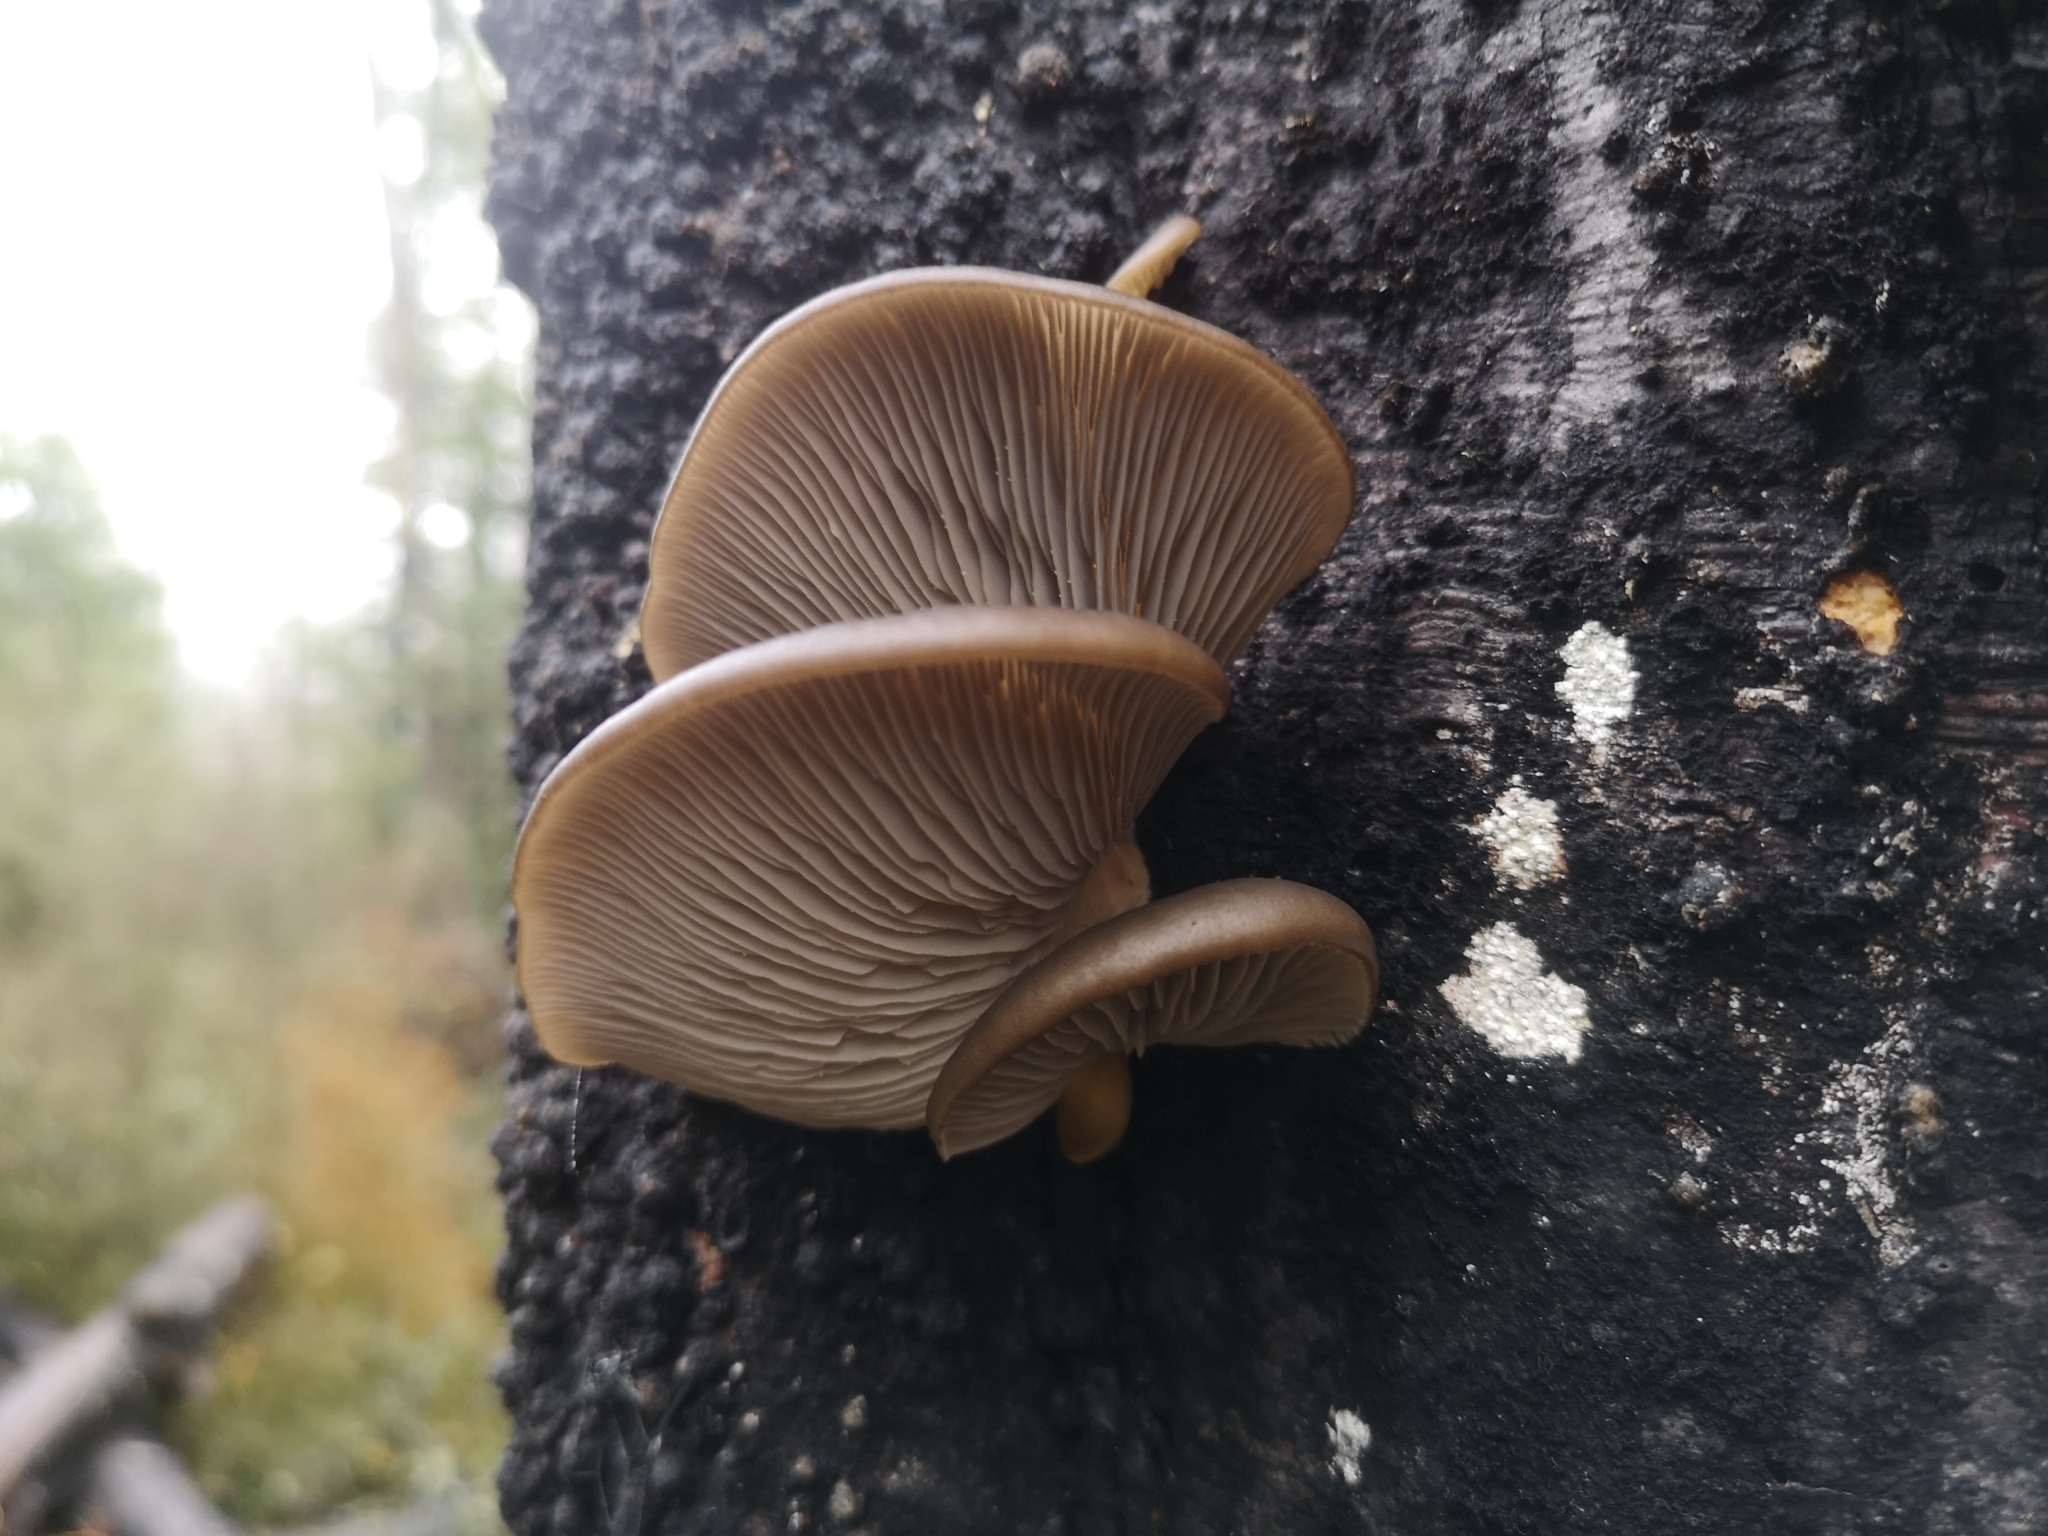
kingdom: Fungi
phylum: Basidiomycota
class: Agaricomycetes
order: Agaricales
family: Pleurotaceae
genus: Pleurotus
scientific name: Pleurotus purpureo-olivaceus
